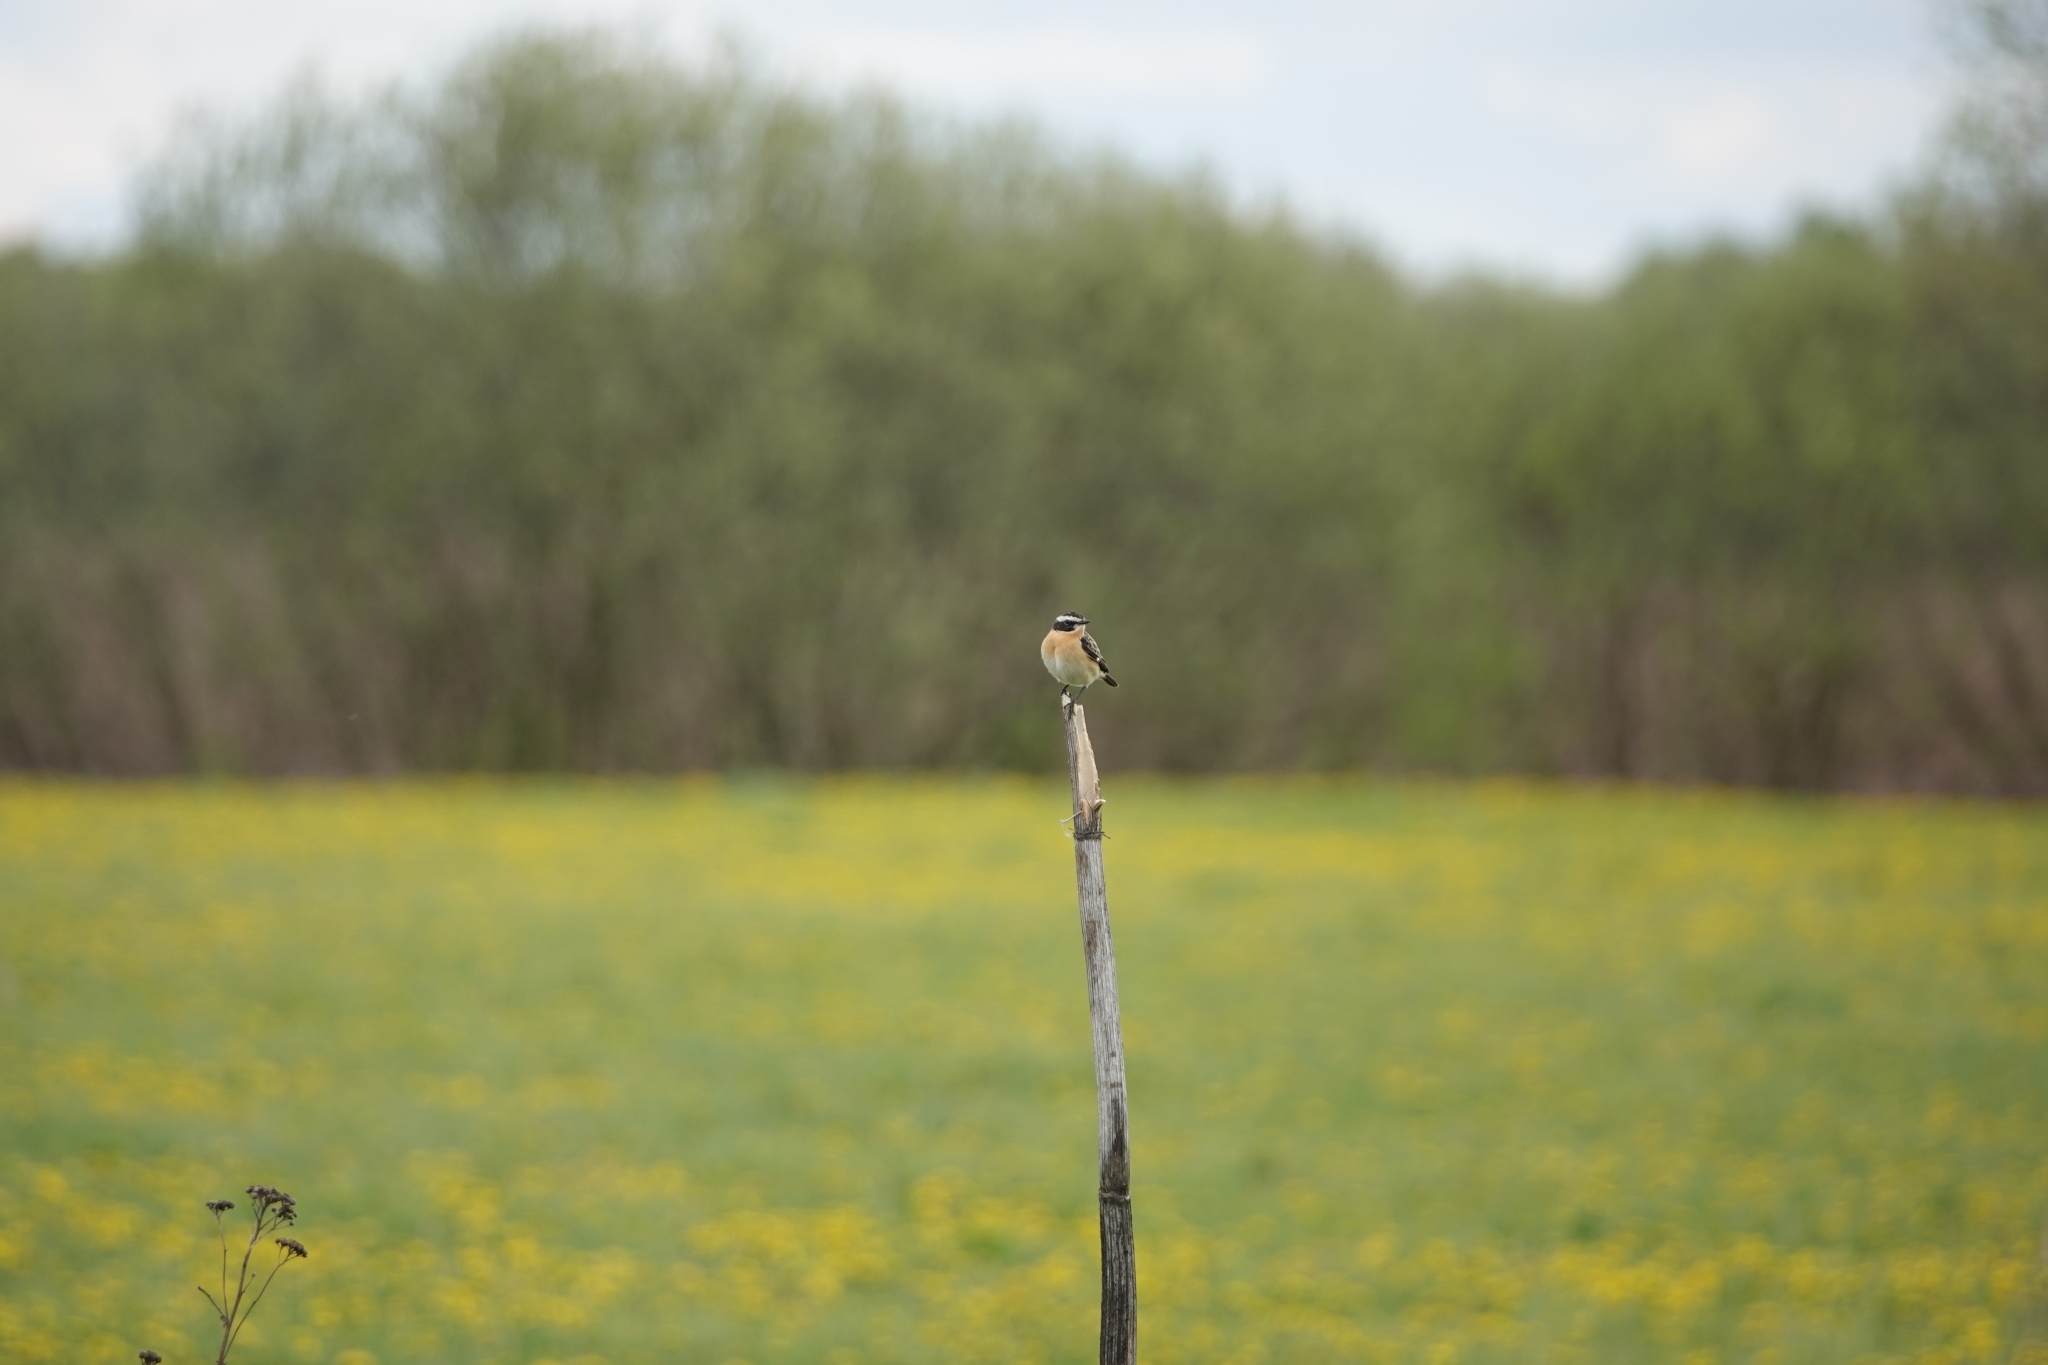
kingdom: Animalia
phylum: Chordata
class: Aves
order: Passeriformes
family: Muscicapidae
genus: Saxicola
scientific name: Saxicola rubetra
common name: Whinchat
